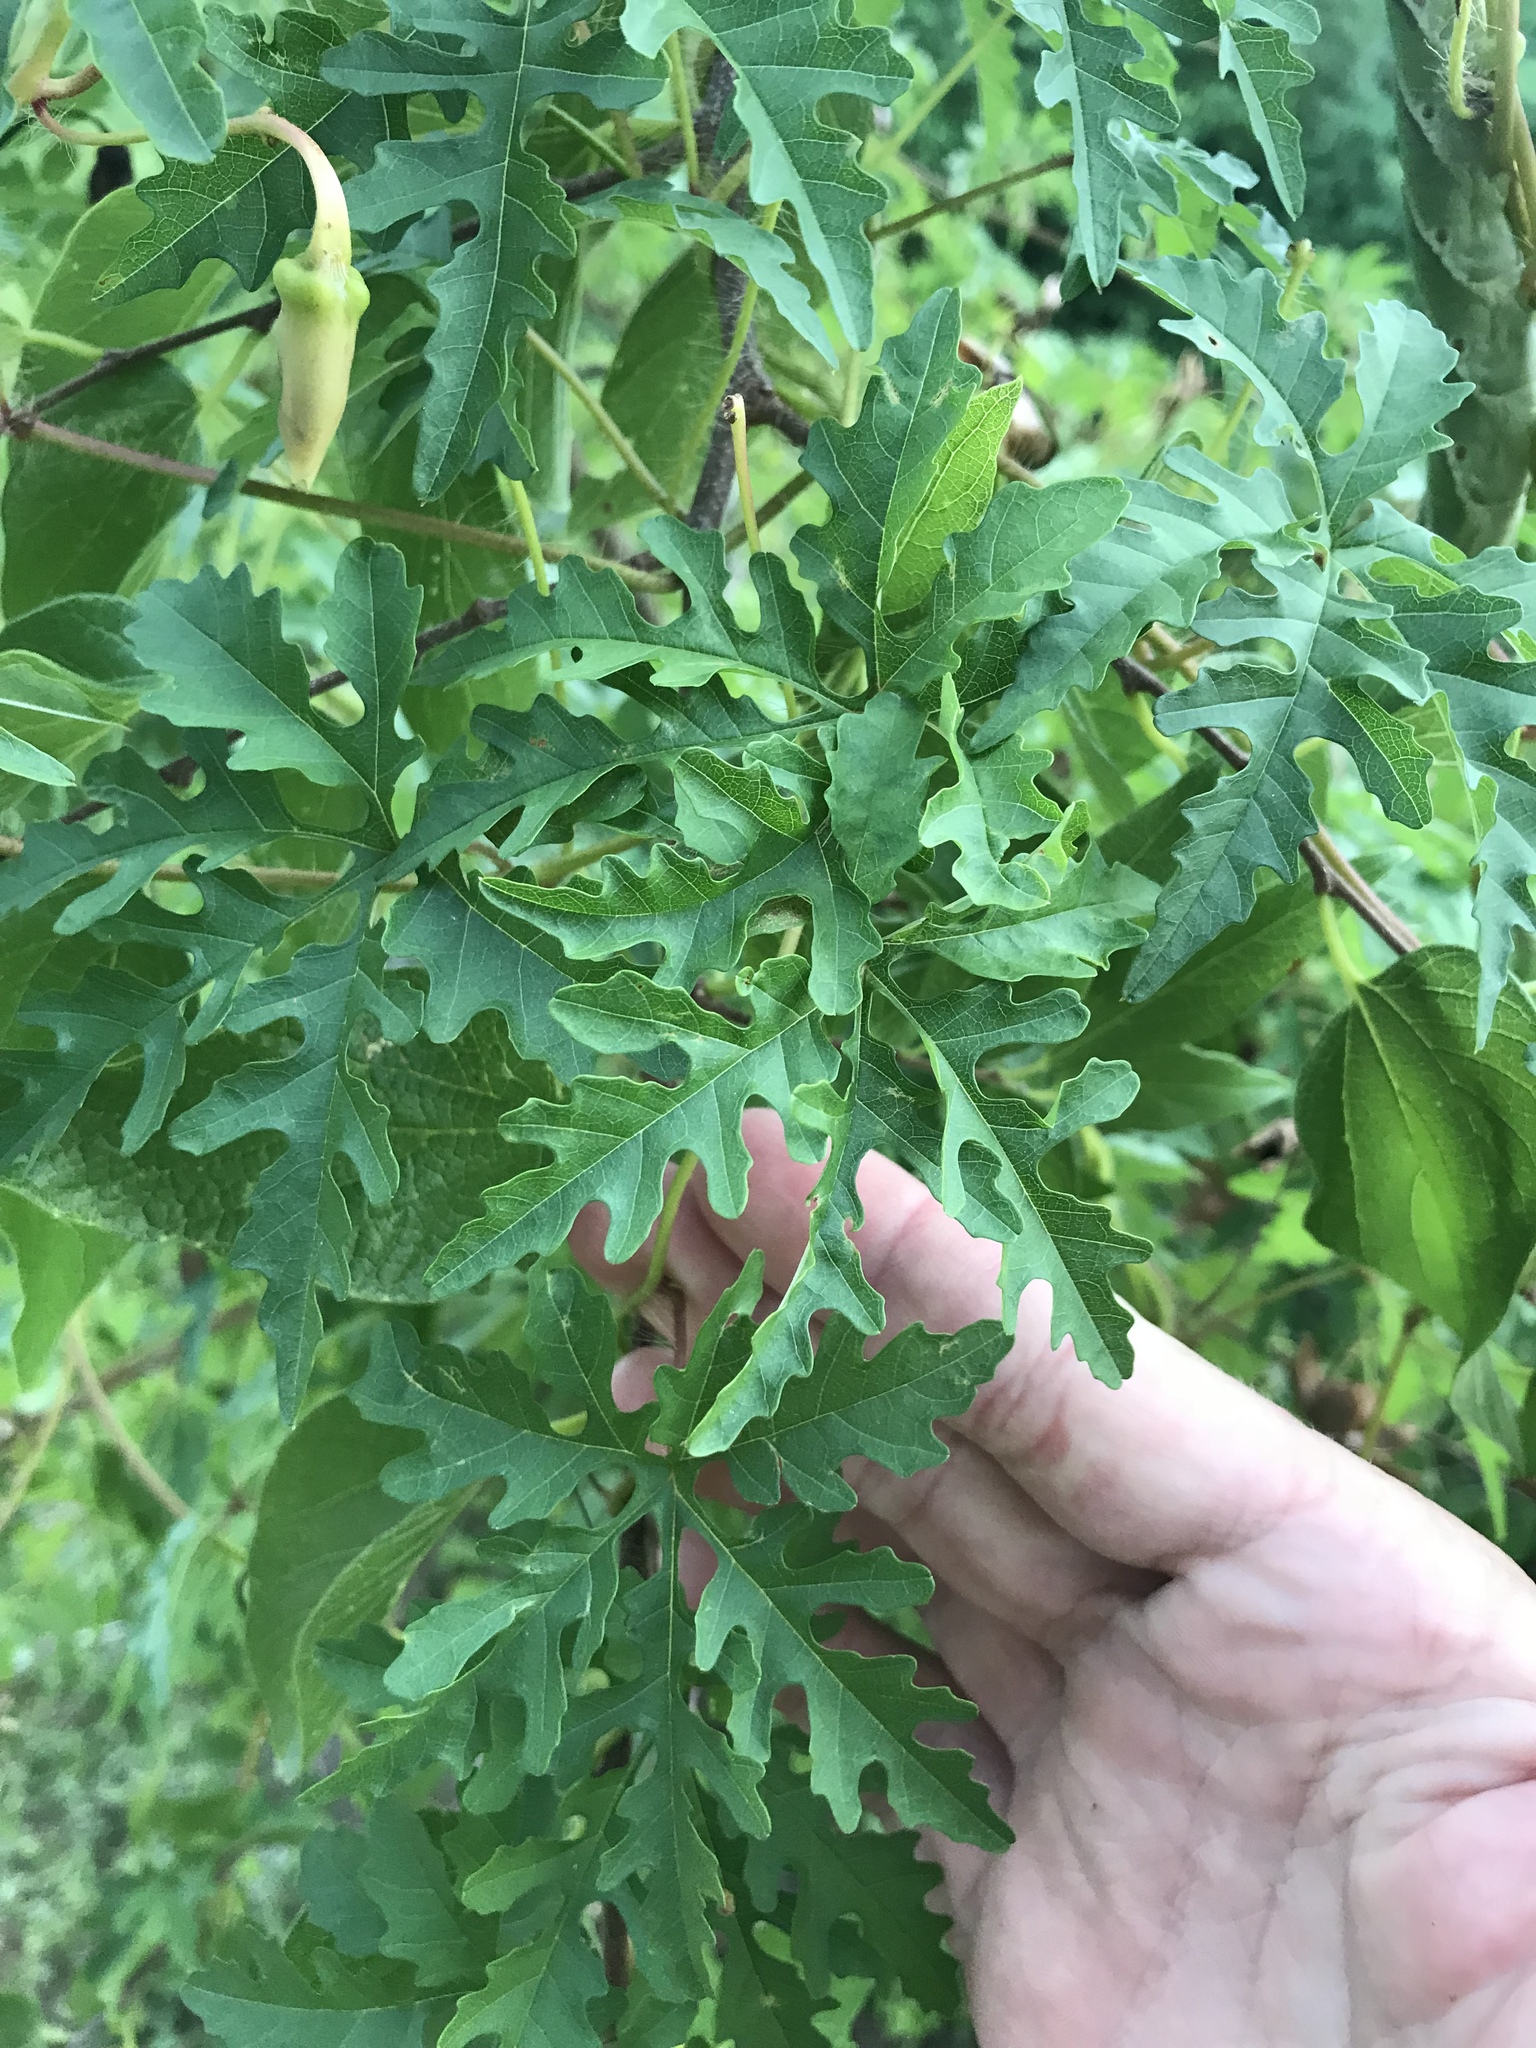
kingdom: Plantae
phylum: Tracheophyta
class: Magnoliopsida
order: Solanales
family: Convolvulaceae
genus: Distimake
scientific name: Distimake dissectus
